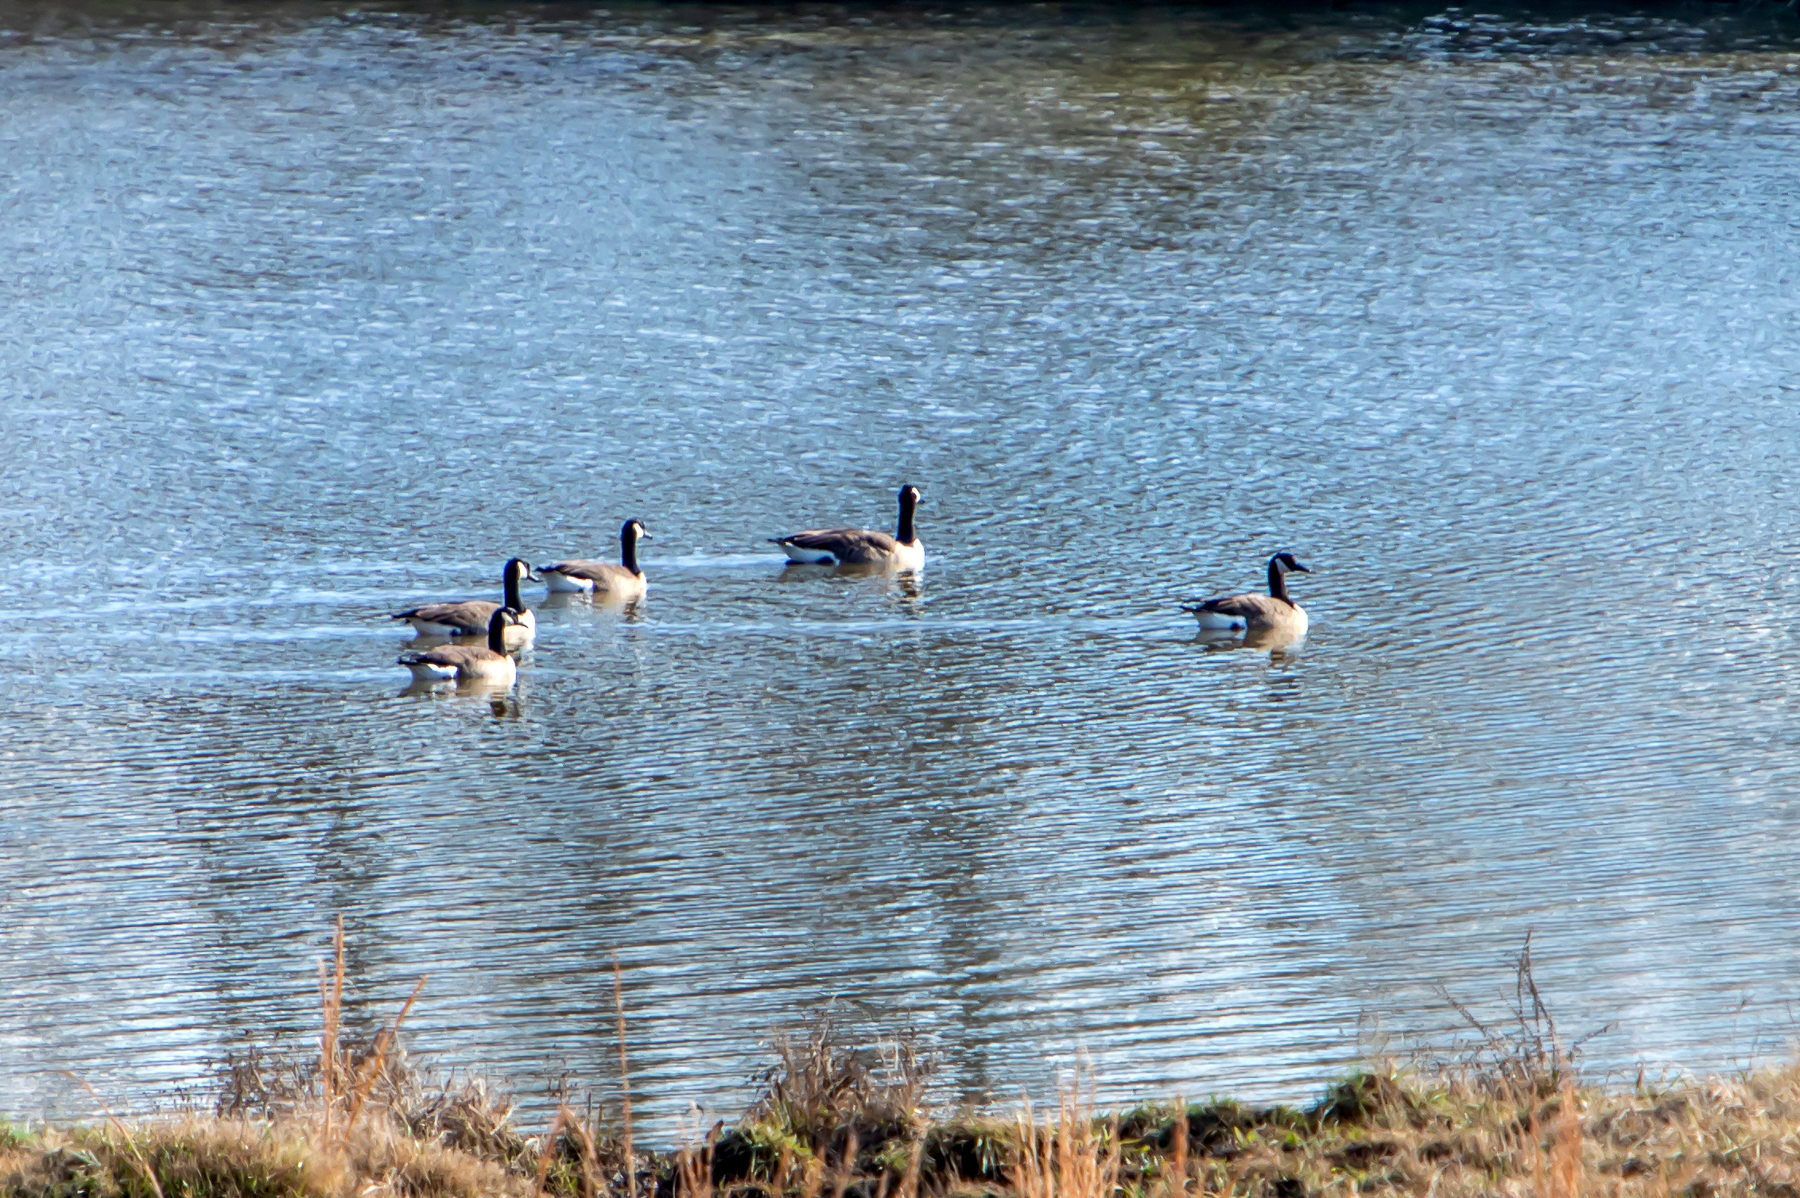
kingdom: Animalia
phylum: Chordata
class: Aves
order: Anseriformes
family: Anatidae
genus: Branta
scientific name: Branta canadensis
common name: Canada goose
